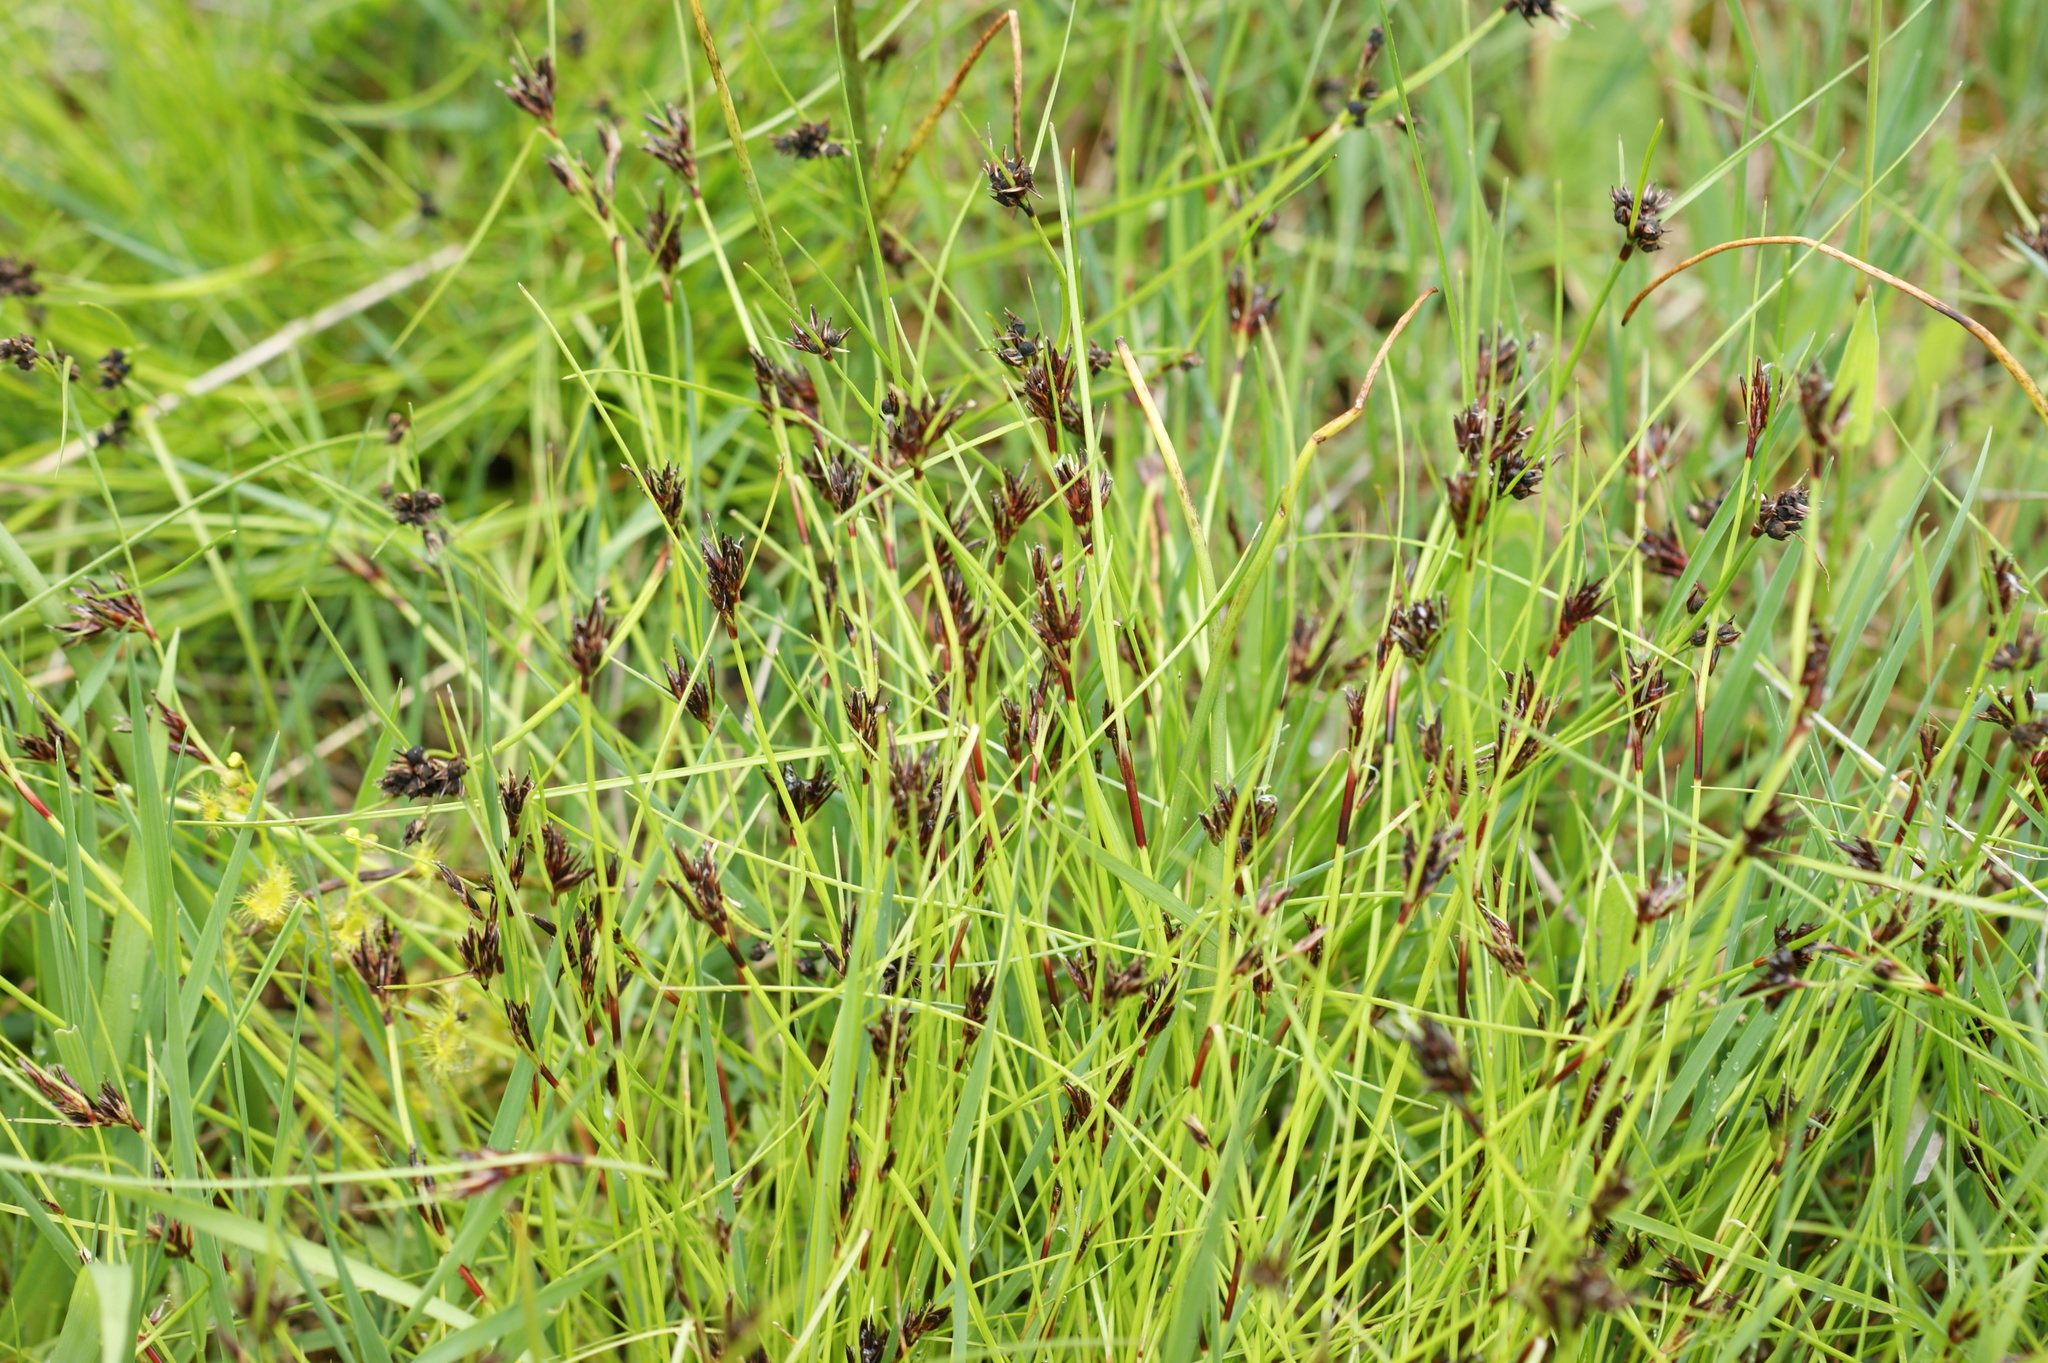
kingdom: Plantae
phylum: Tracheophyta
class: Liliopsida
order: Poales
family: Cyperaceae
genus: Schoenus
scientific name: Schoenus apogon
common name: Smooth bogrush
